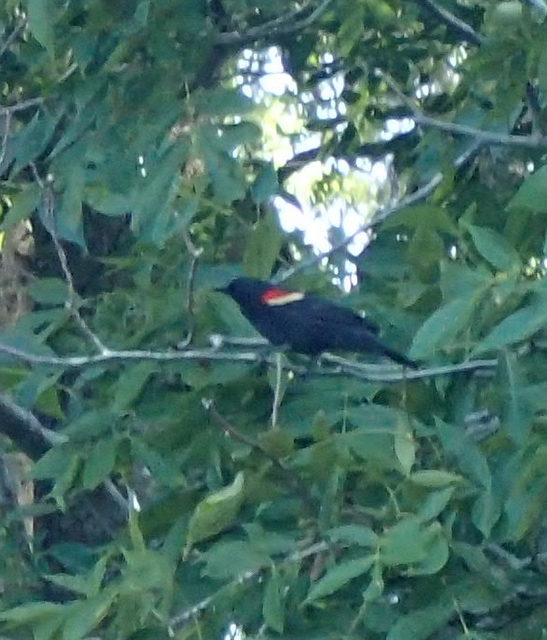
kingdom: Animalia
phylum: Chordata
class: Aves
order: Passeriformes
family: Icteridae
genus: Agelaius
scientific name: Agelaius phoeniceus
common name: Red-winged blackbird
